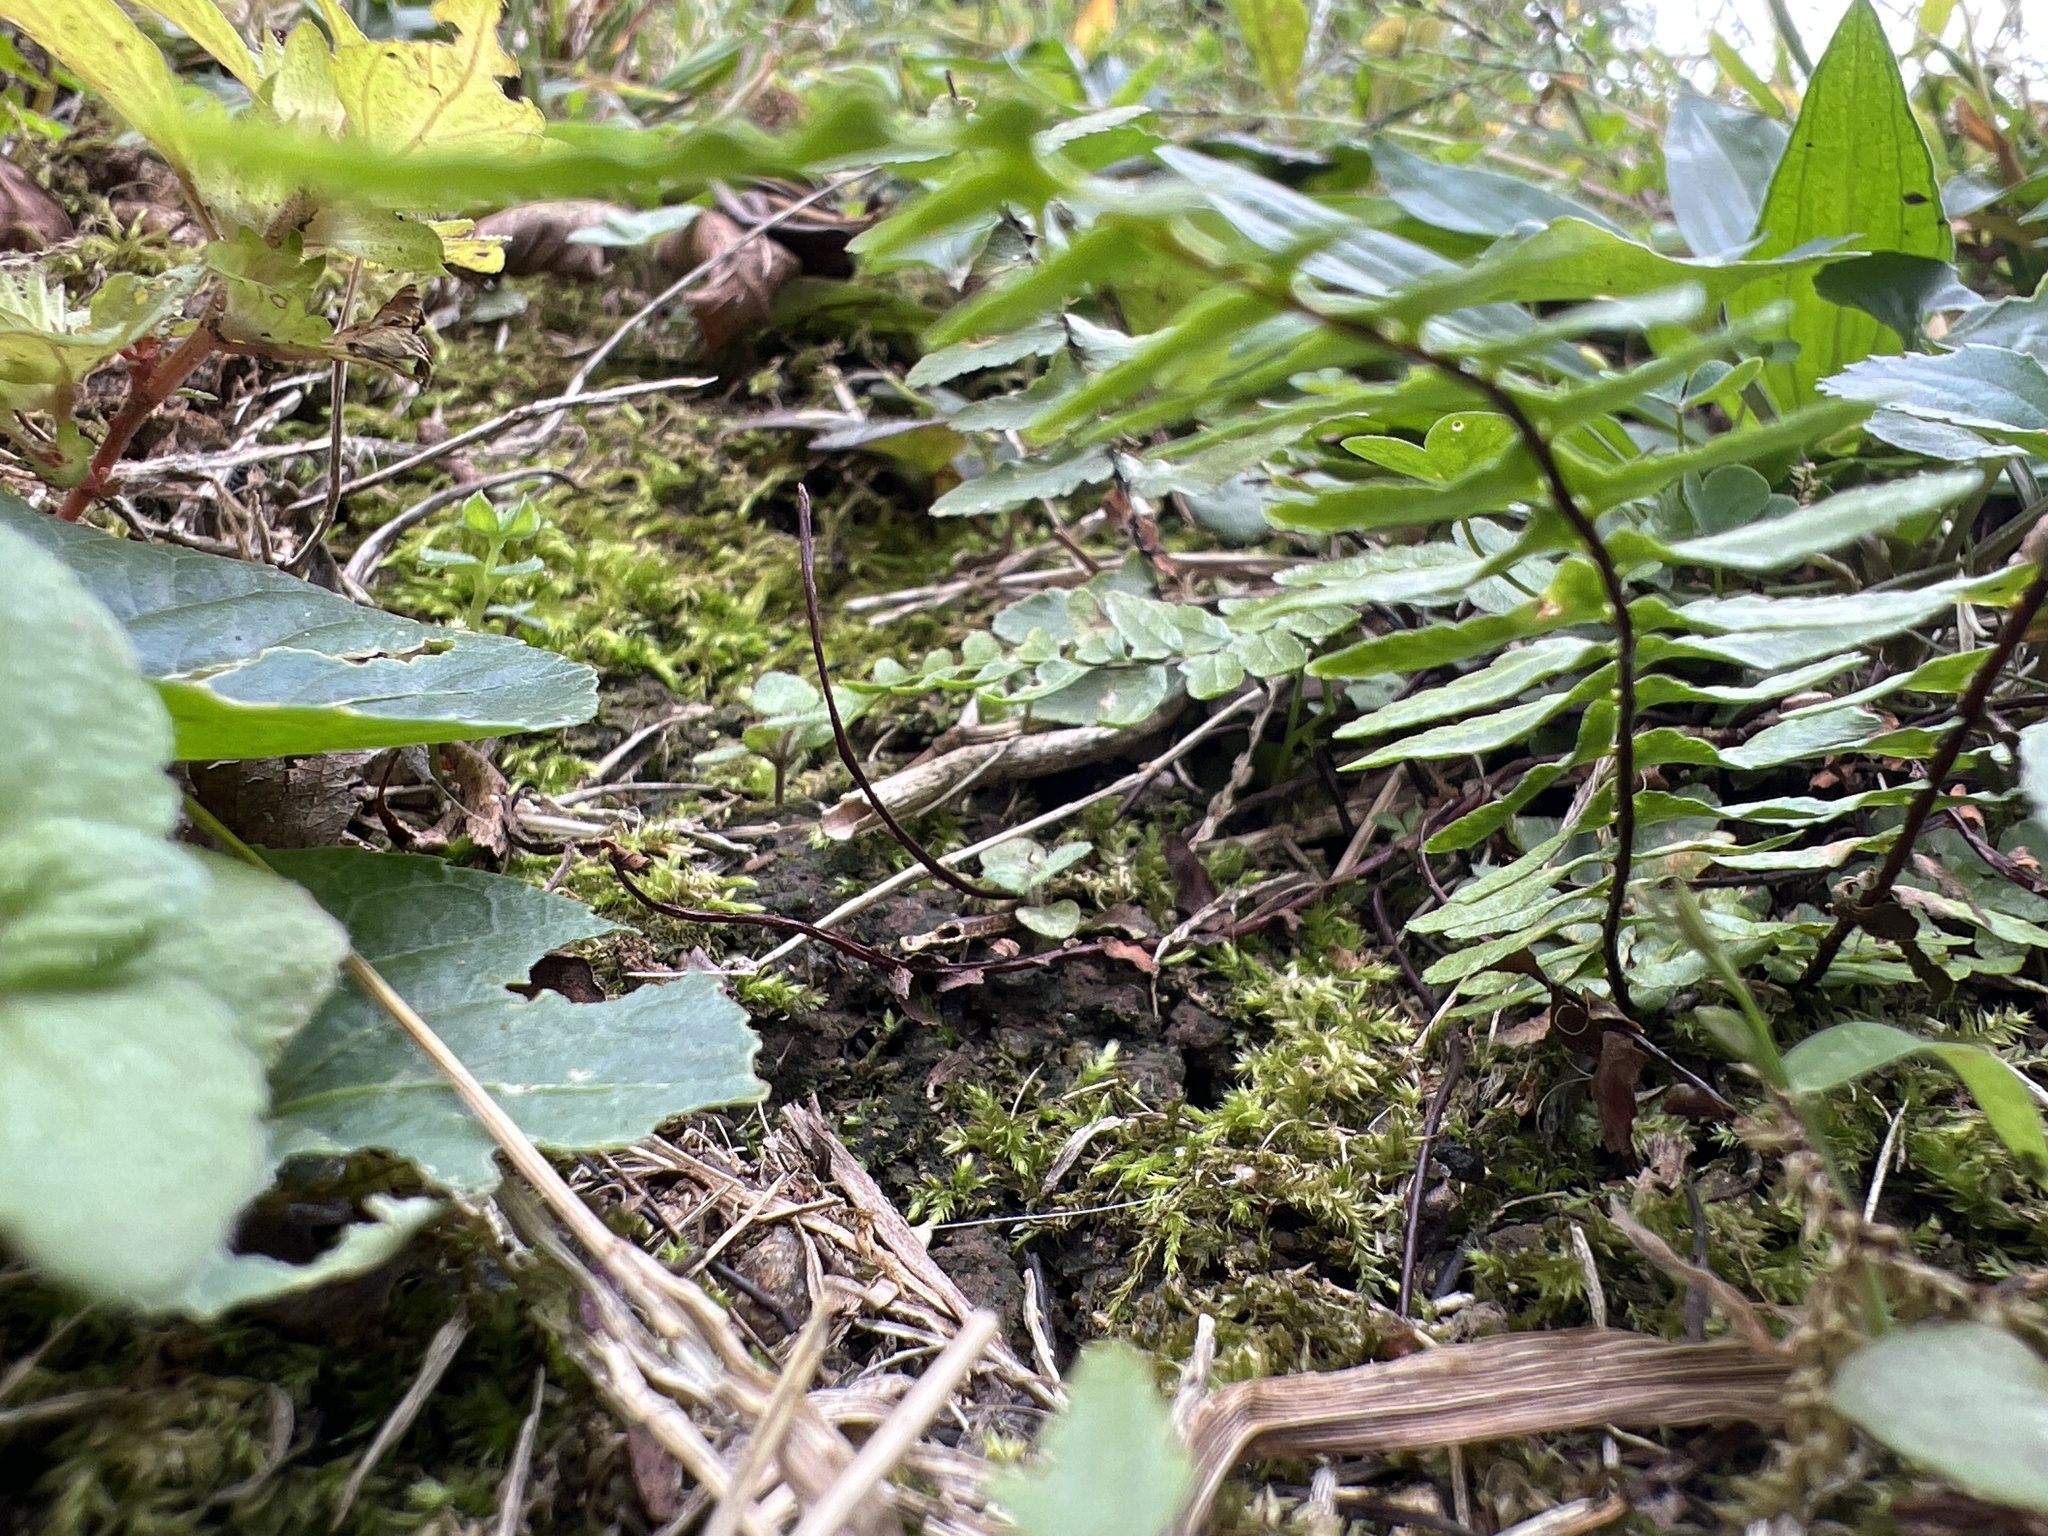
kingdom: Plantae
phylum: Tracheophyta
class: Polypodiopsida
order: Polypodiales
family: Aspleniaceae
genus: Asplenium
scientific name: Asplenium platyneuron
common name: Ebony spleenwort
